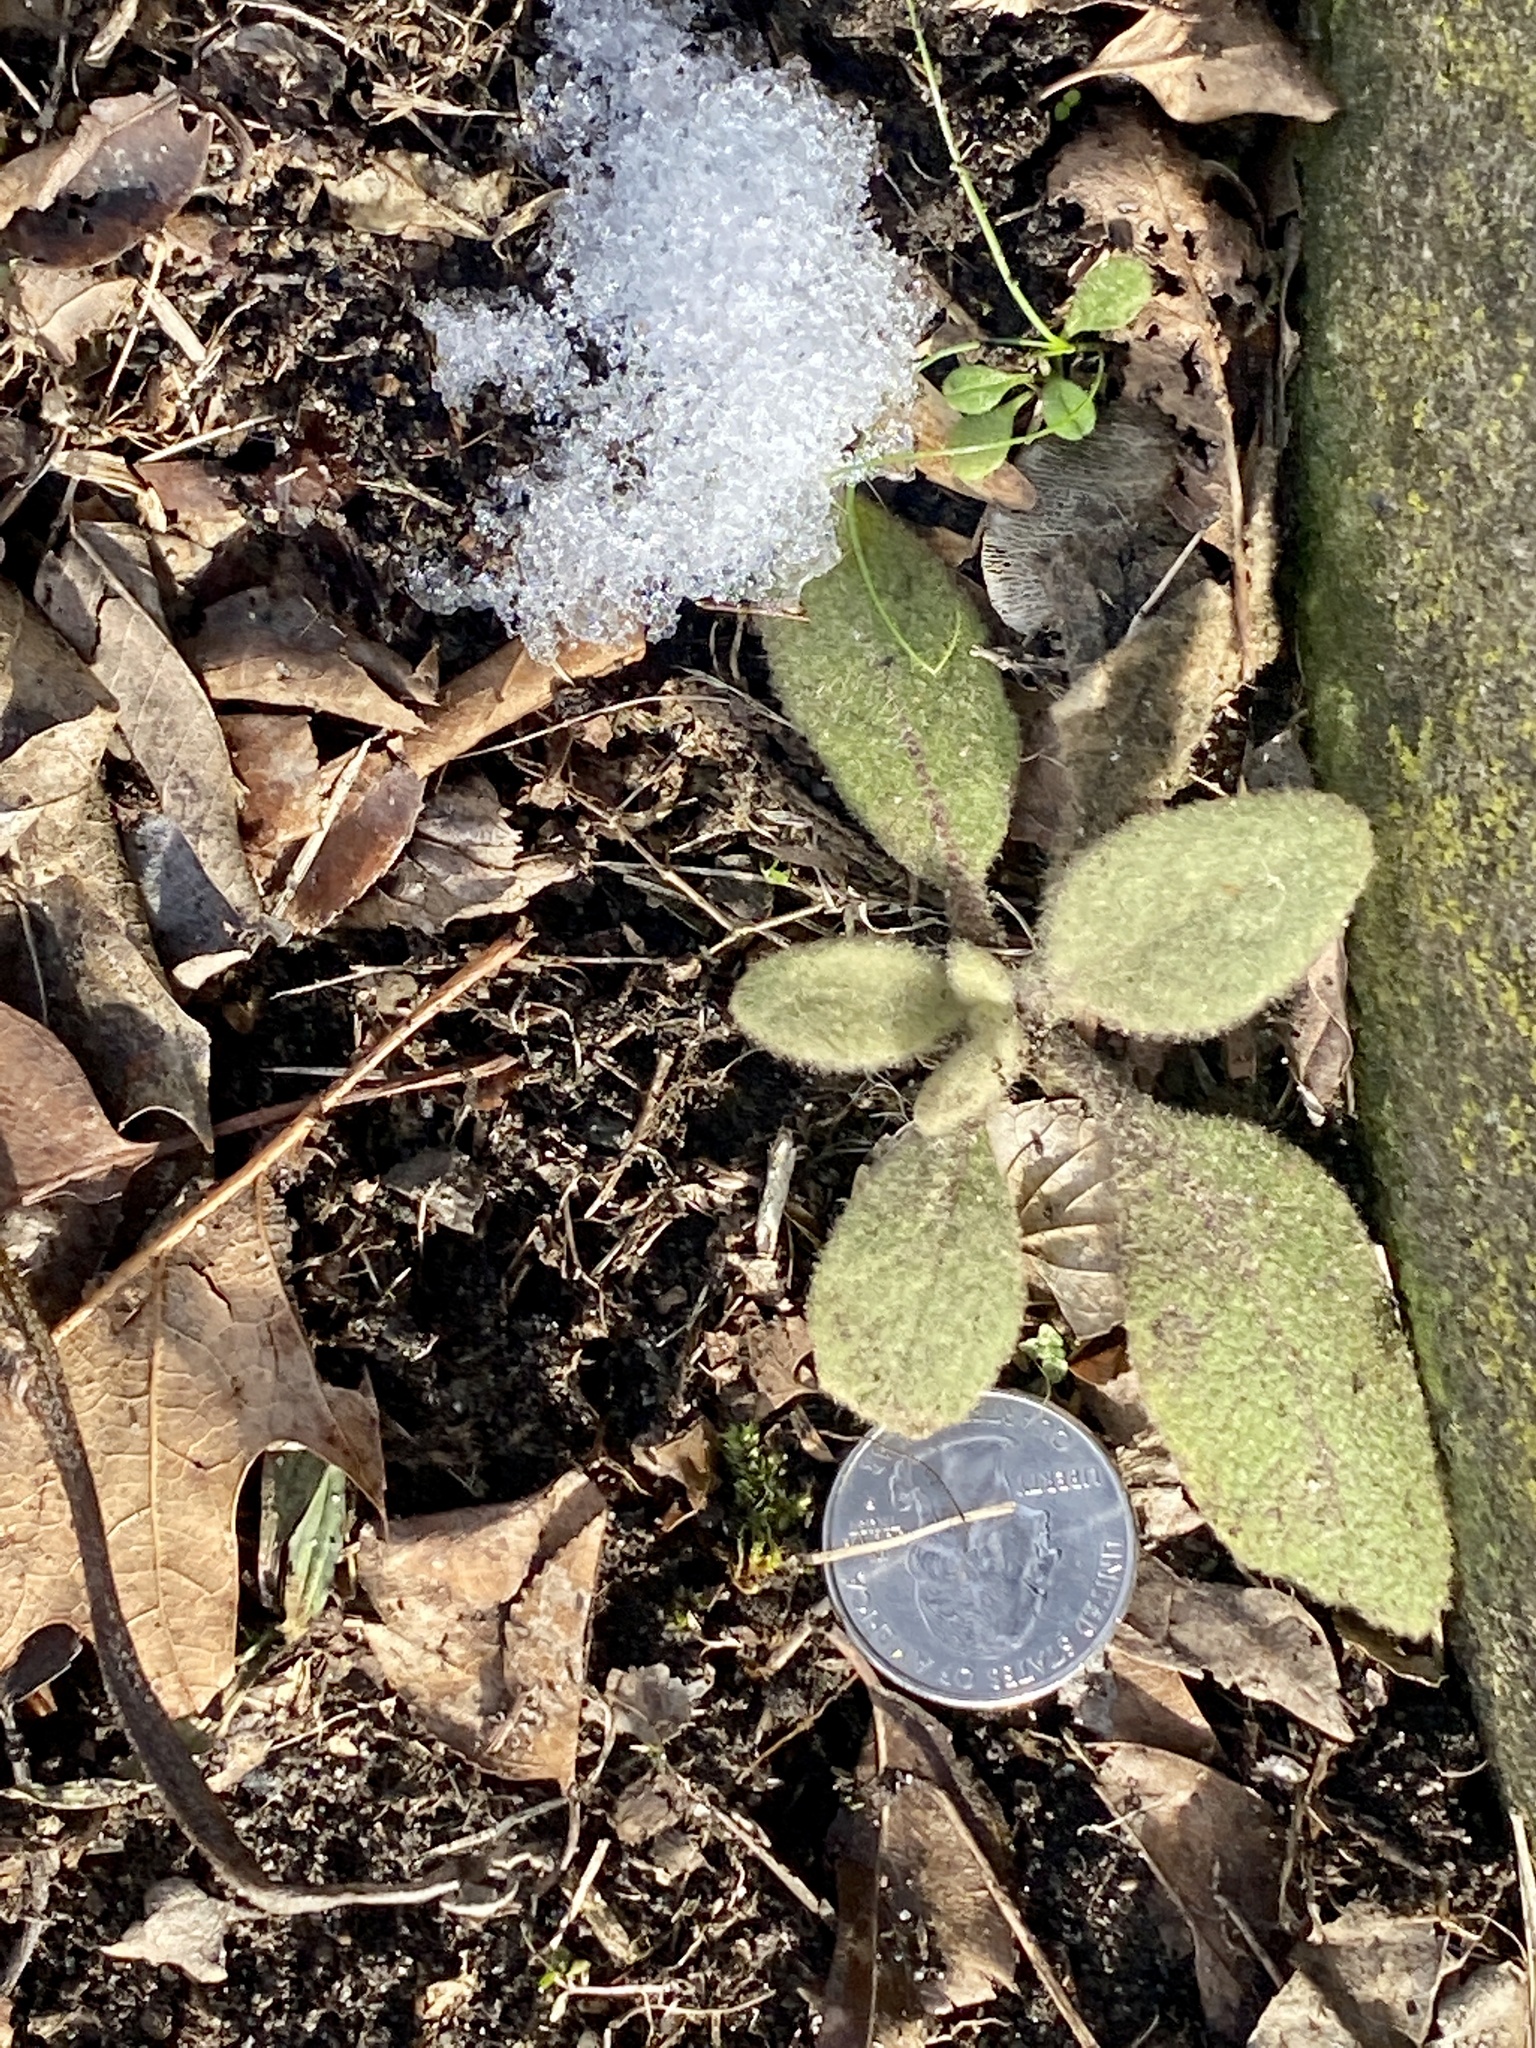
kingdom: Plantae
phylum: Tracheophyta
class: Magnoliopsida
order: Lamiales
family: Scrophulariaceae
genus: Verbascum
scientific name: Verbascum thapsus
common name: Common mullein
